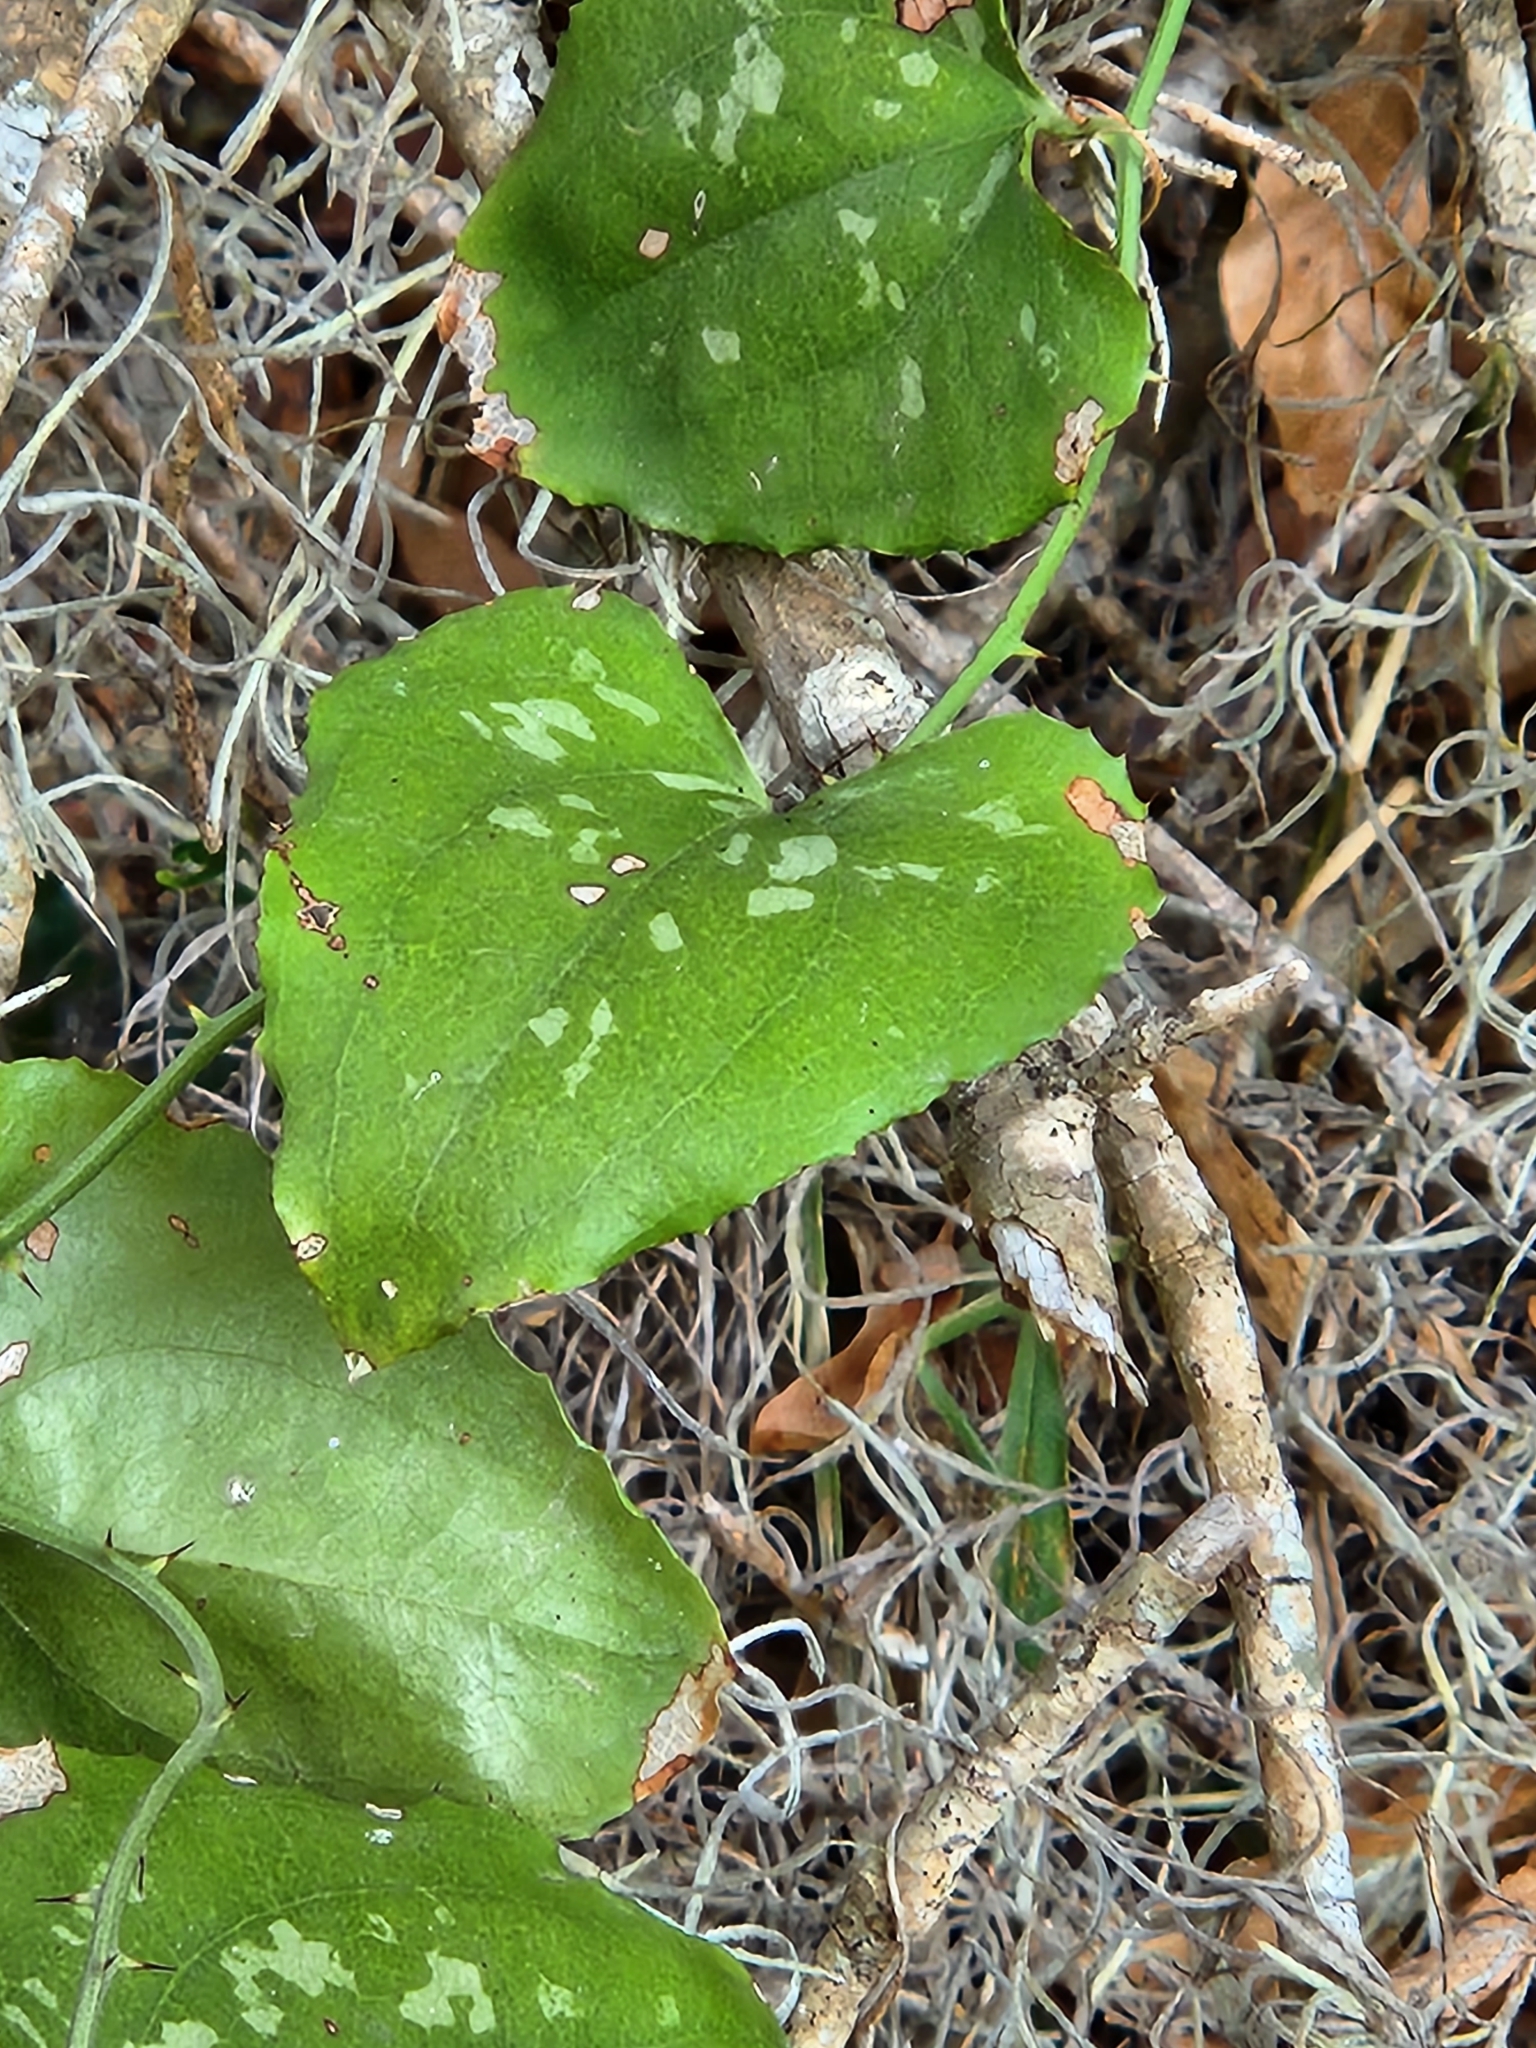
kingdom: Plantae
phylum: Tracheophyta
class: Liliopsida
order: Liliales
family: Smilacaceae
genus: Smilax
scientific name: Smilax bona-nox
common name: Catbrier
